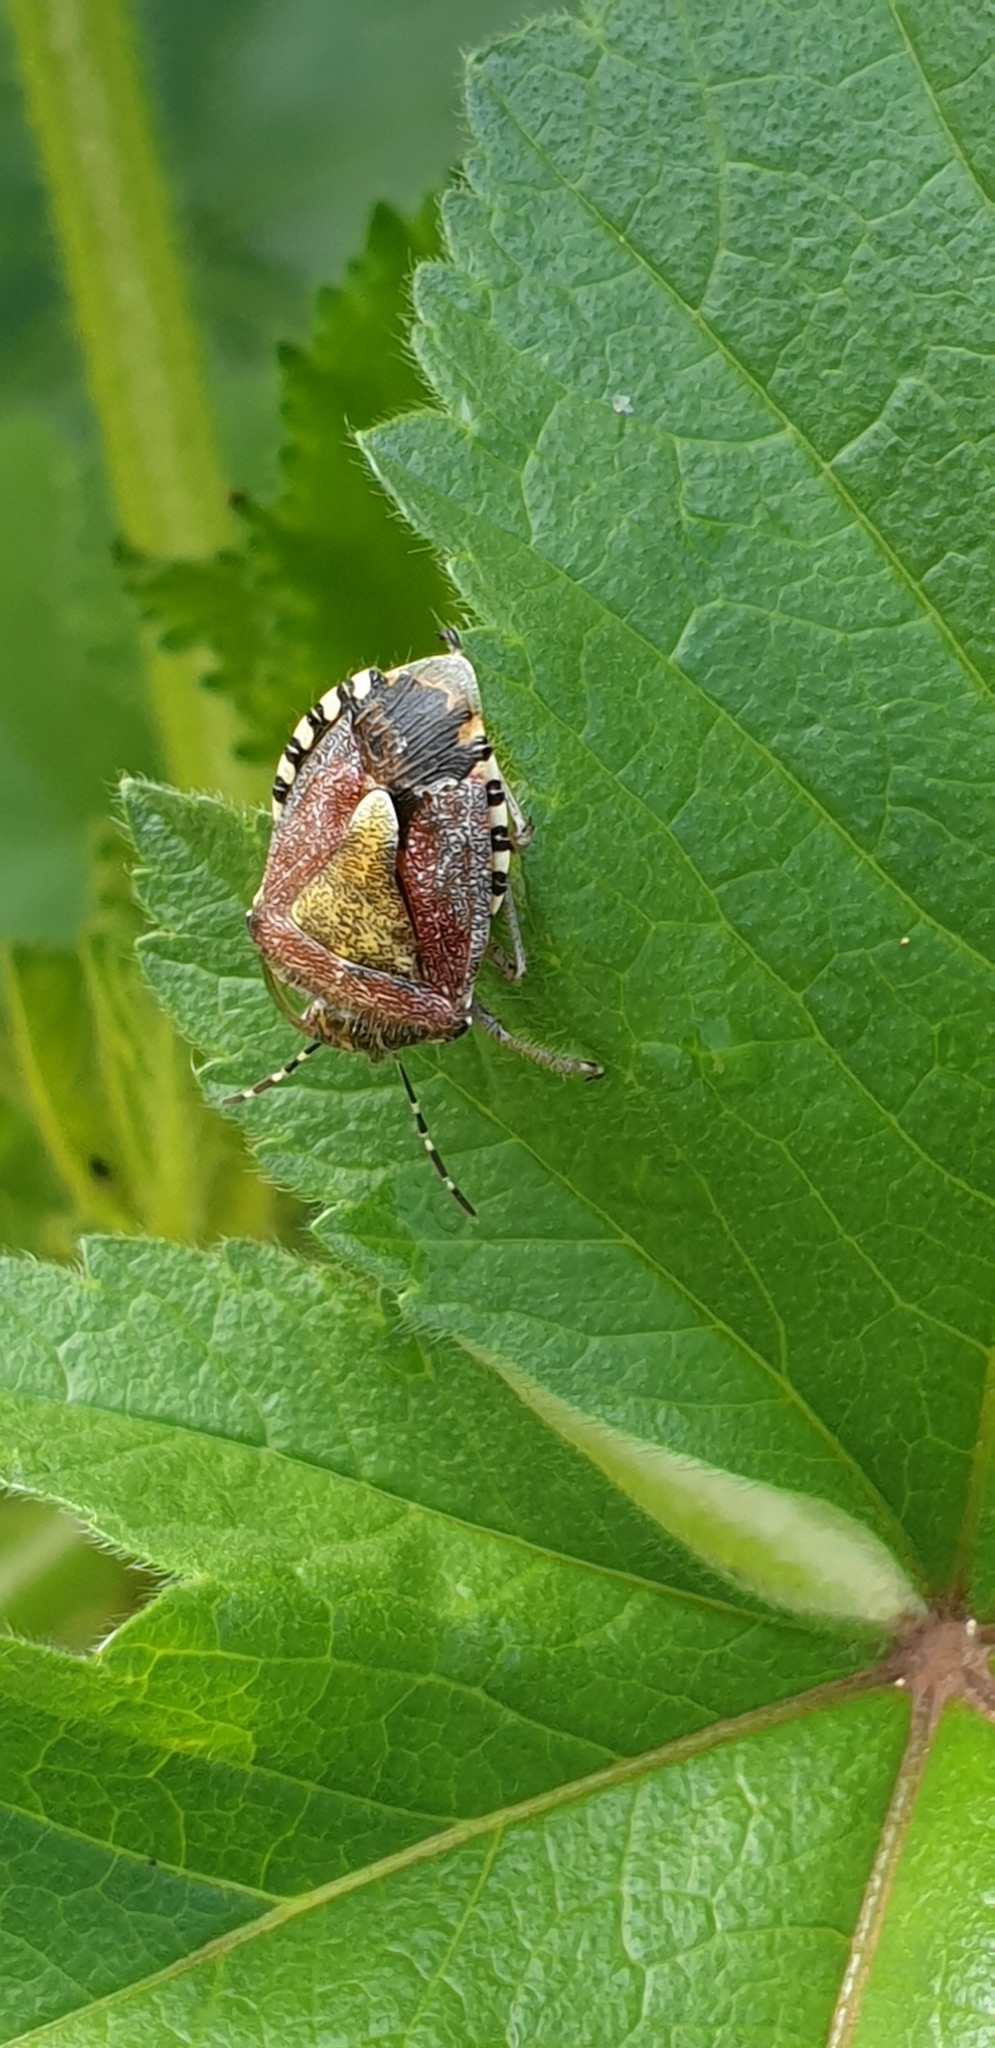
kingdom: Animalia
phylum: Arthropoda
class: Insecta
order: Hemiptera
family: Pentatomidae
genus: Dolycoris
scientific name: Dolycoris baccarum
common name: Sloe bug
